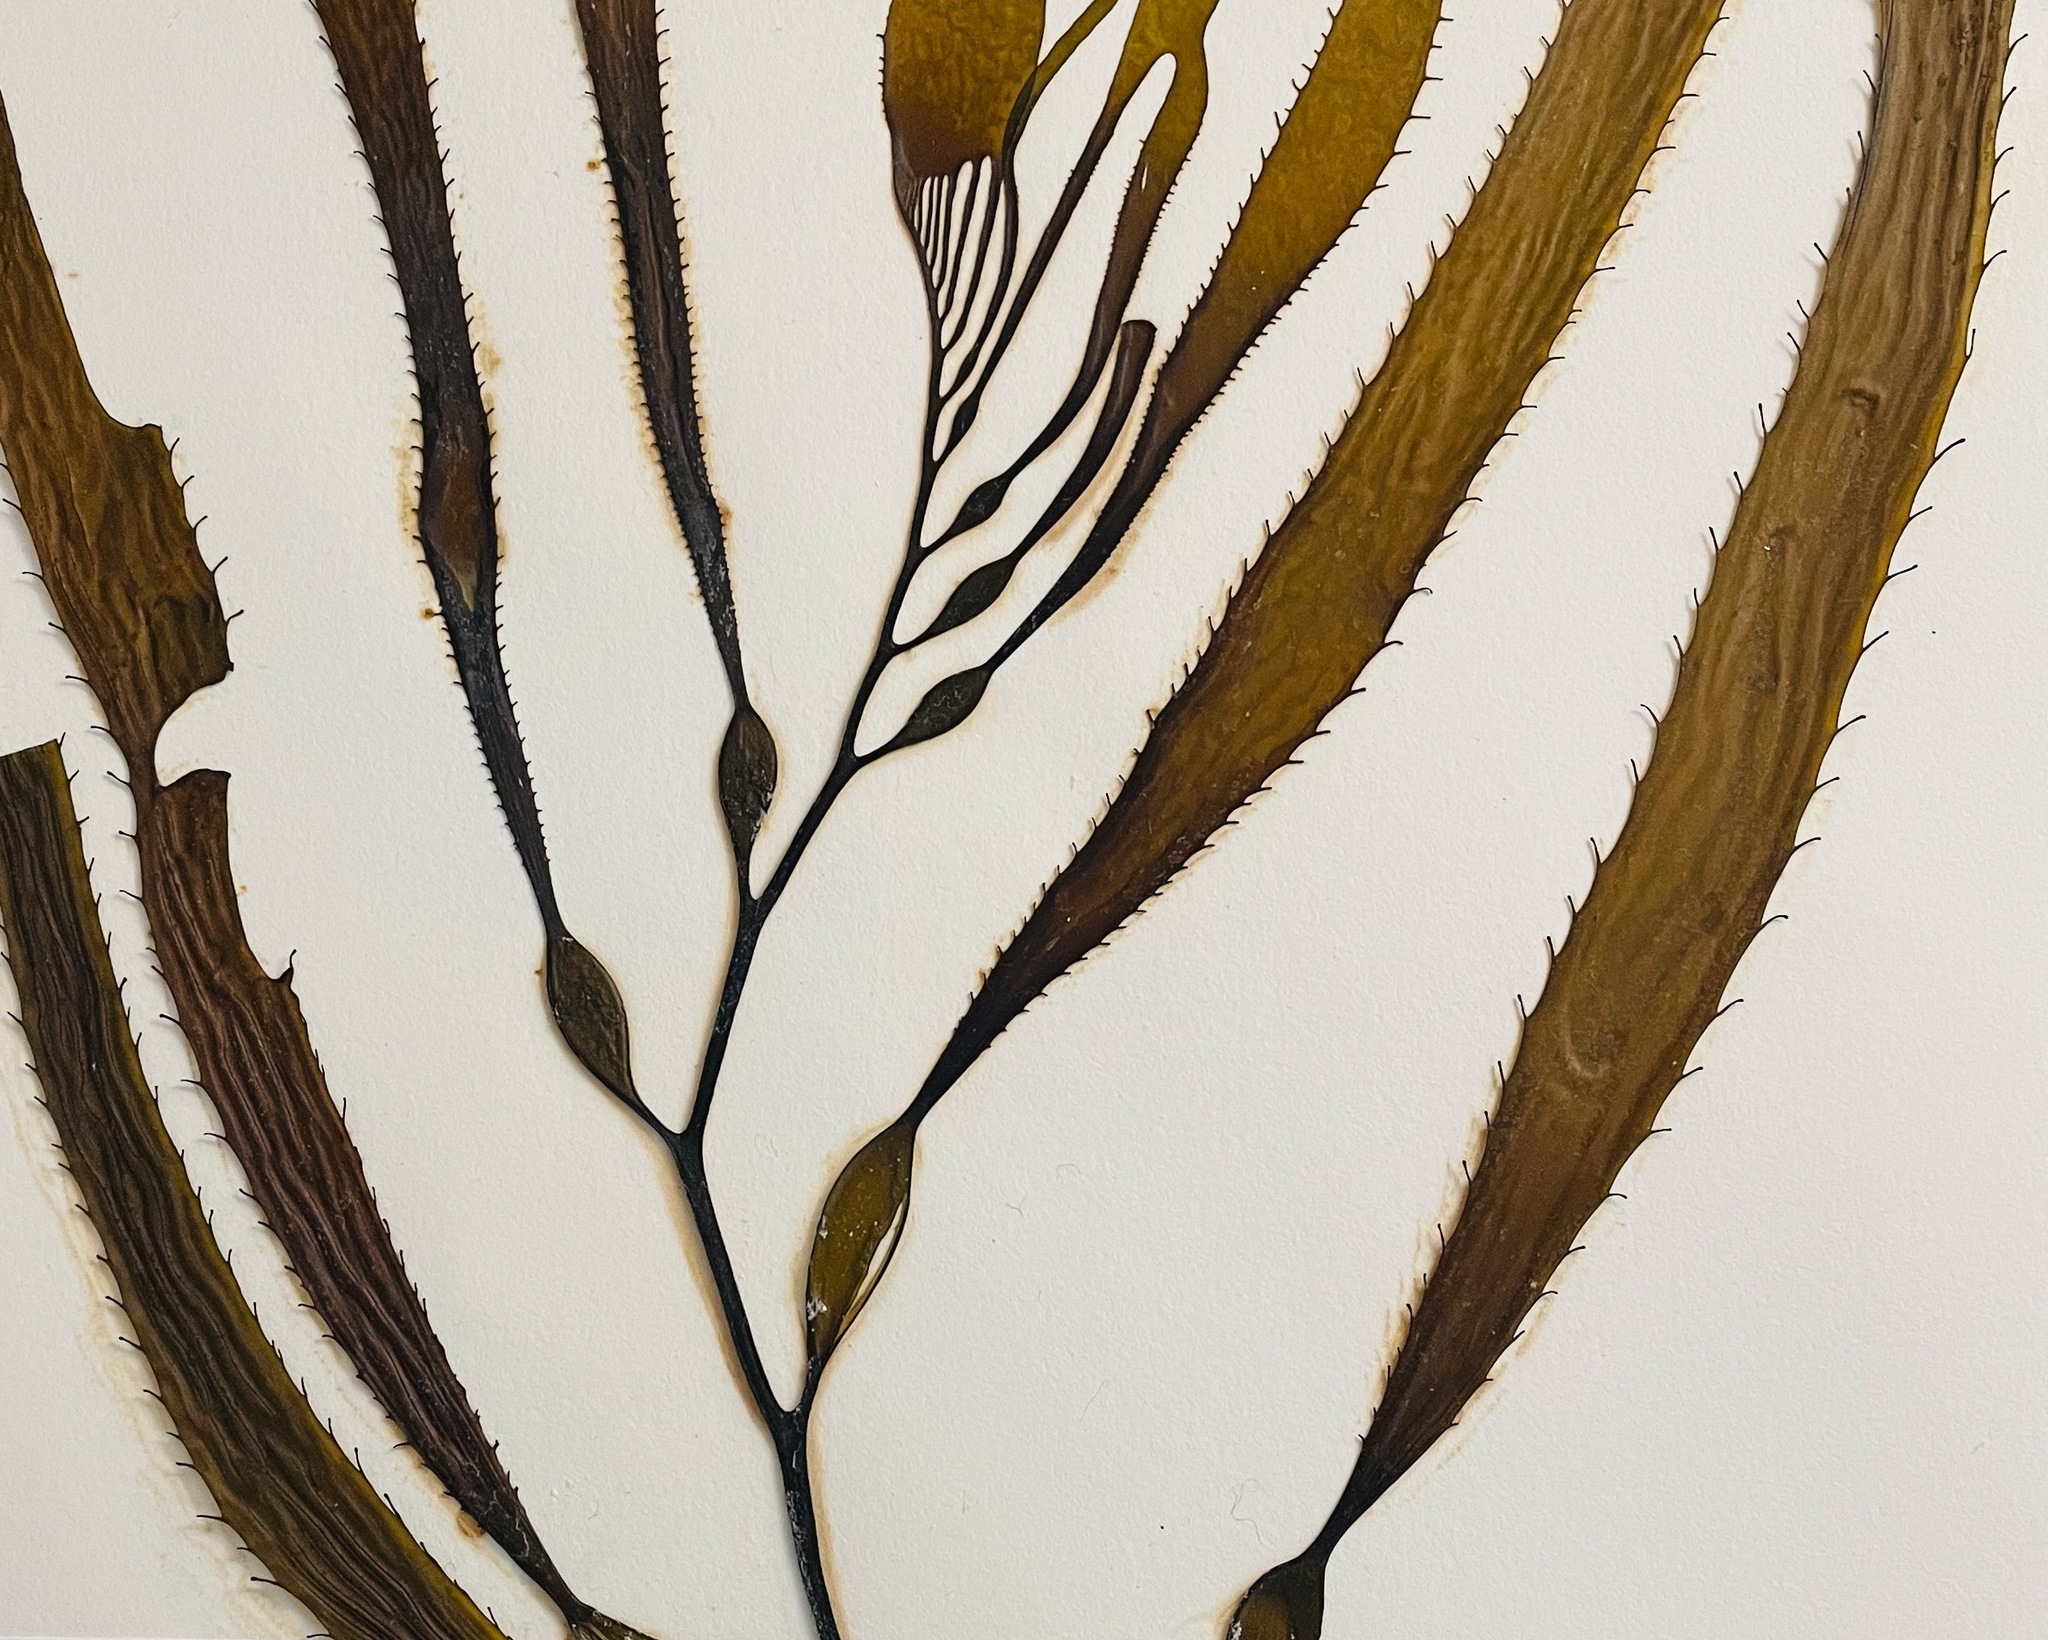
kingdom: Chromista
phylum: Ochrophyta
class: Phaeophyceae
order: Laminariales
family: Laminariaceae
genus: Macrocystis
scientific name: Macrocystis pyrifera
